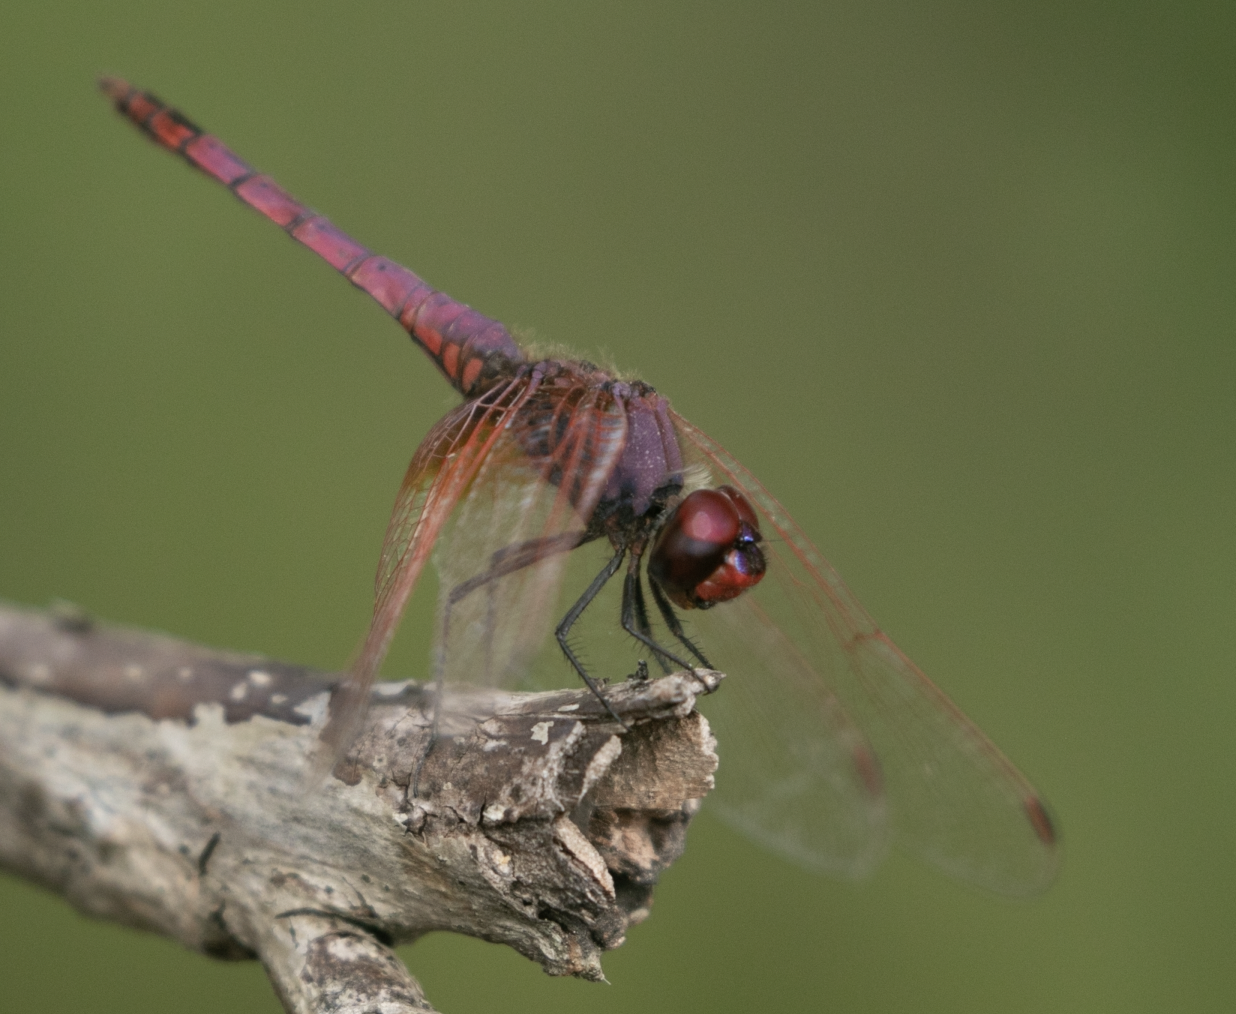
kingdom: Animalia
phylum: Arthropoda
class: Insecta
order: Odonata
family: Libellulidae
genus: Trithemis
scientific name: Trithemis annulata
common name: Violet dropwing
